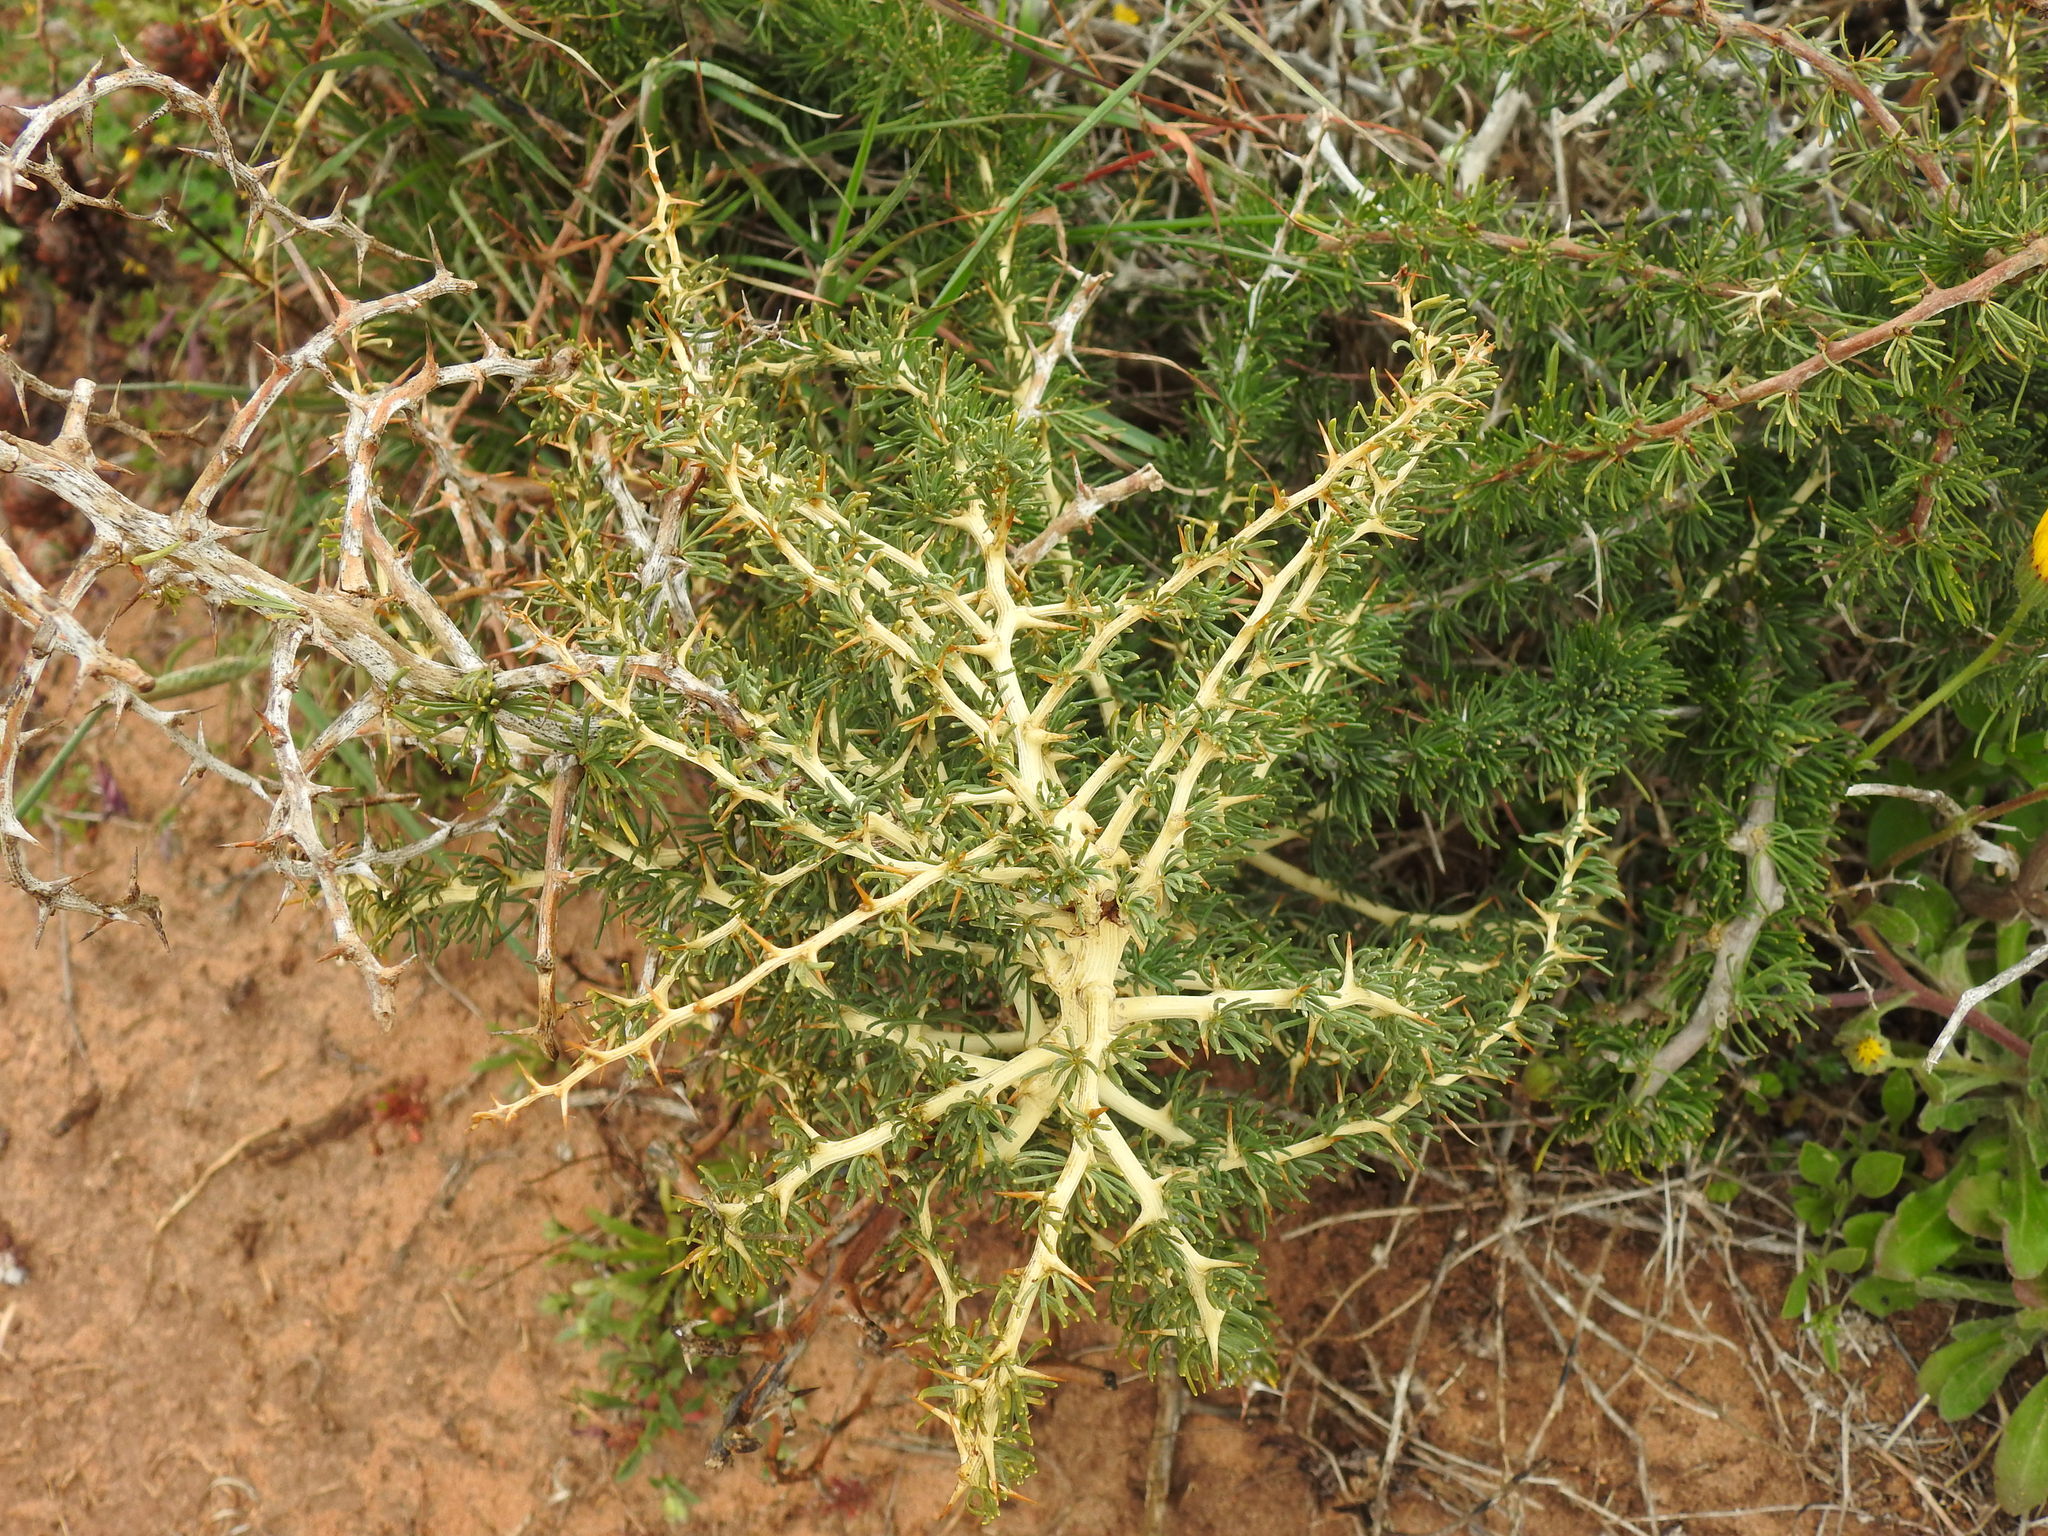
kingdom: Plantae
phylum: Tracheophyta
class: Liliopsida
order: Asparagales
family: Asparagaceae
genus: Asparagus
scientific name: Asparagus albus
